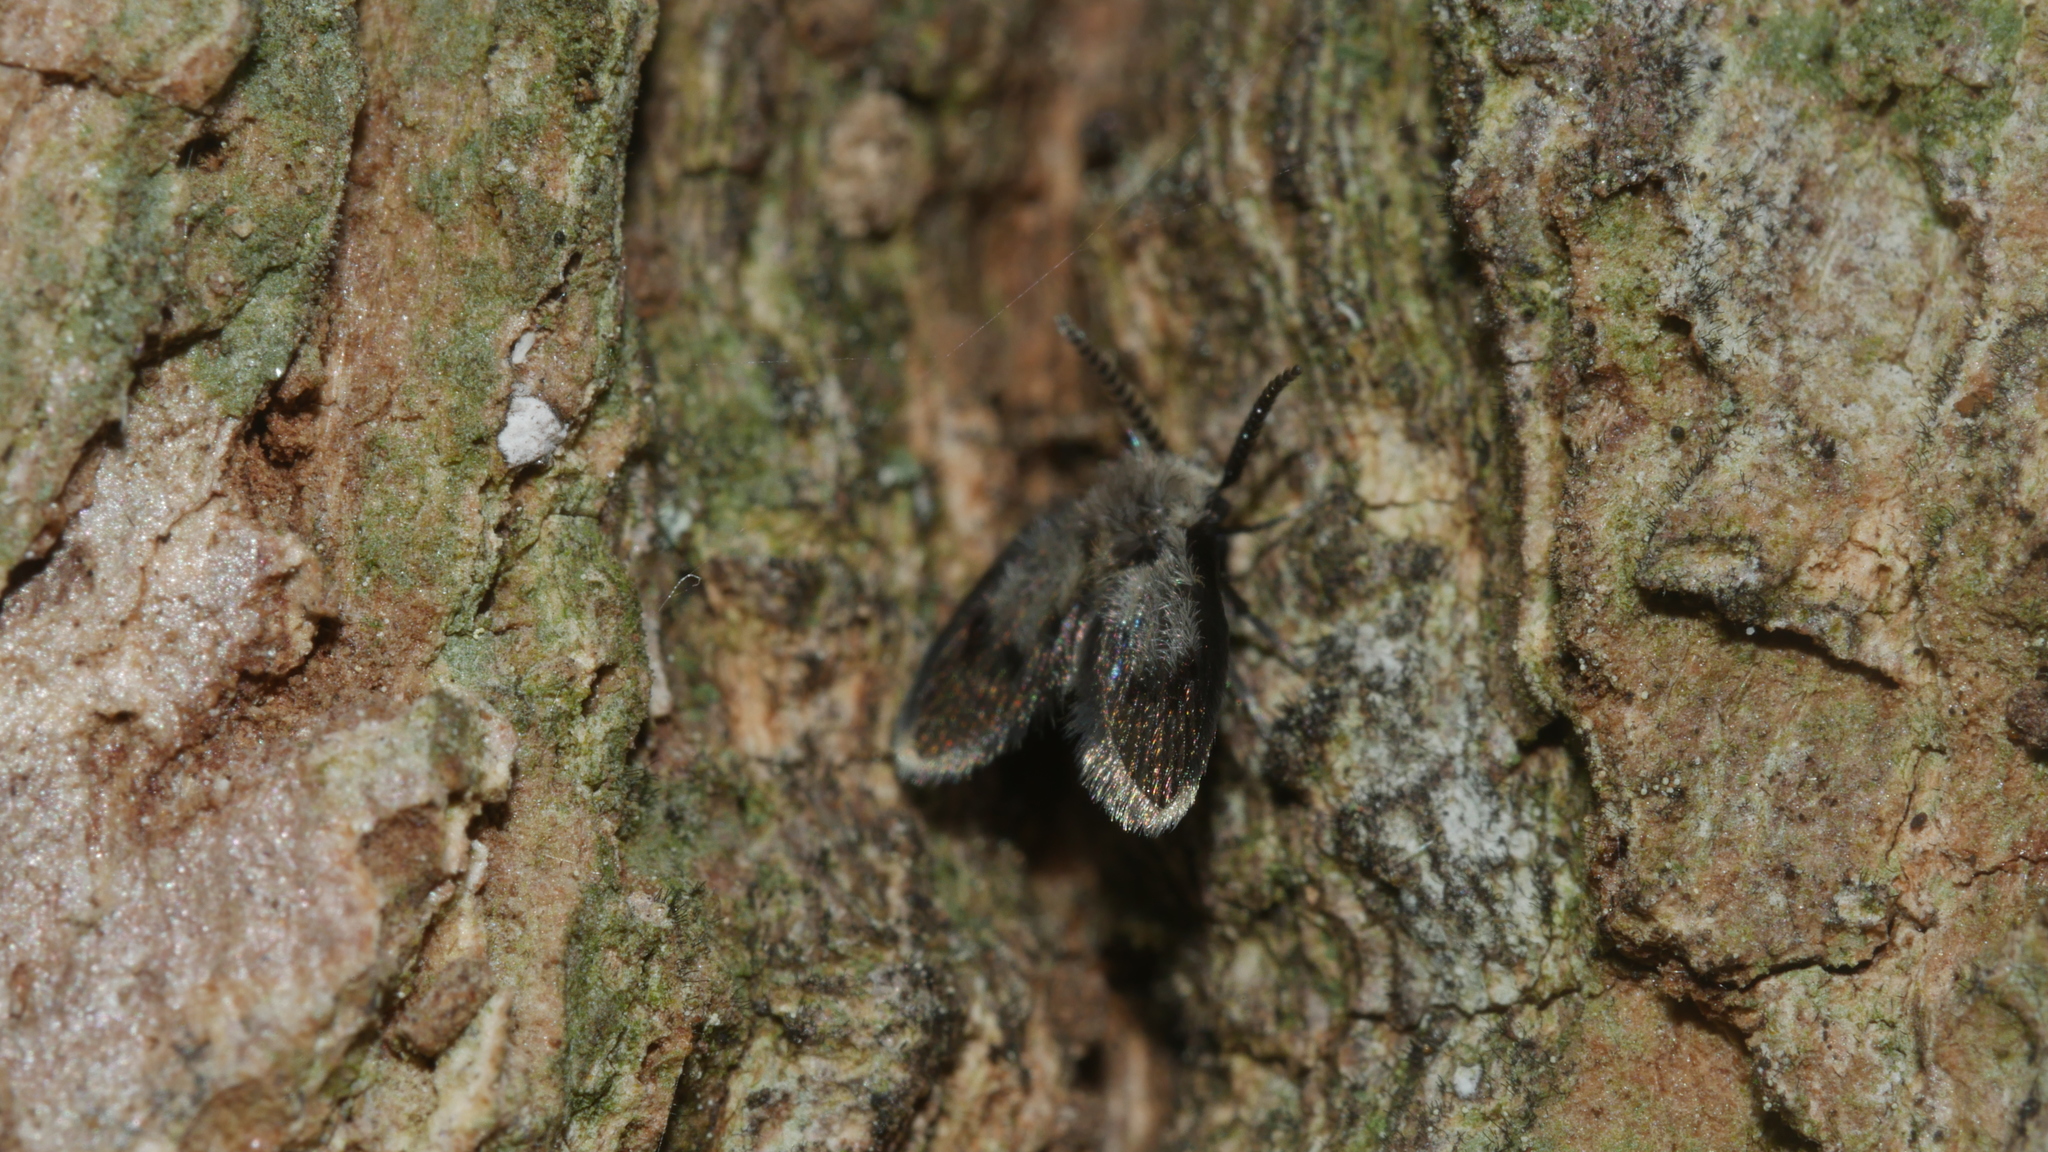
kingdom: Animalia
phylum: Arthropoda
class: Insecta
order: Diptera
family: Psychodidae
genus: Lepiseodina
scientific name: Lepiseodina
